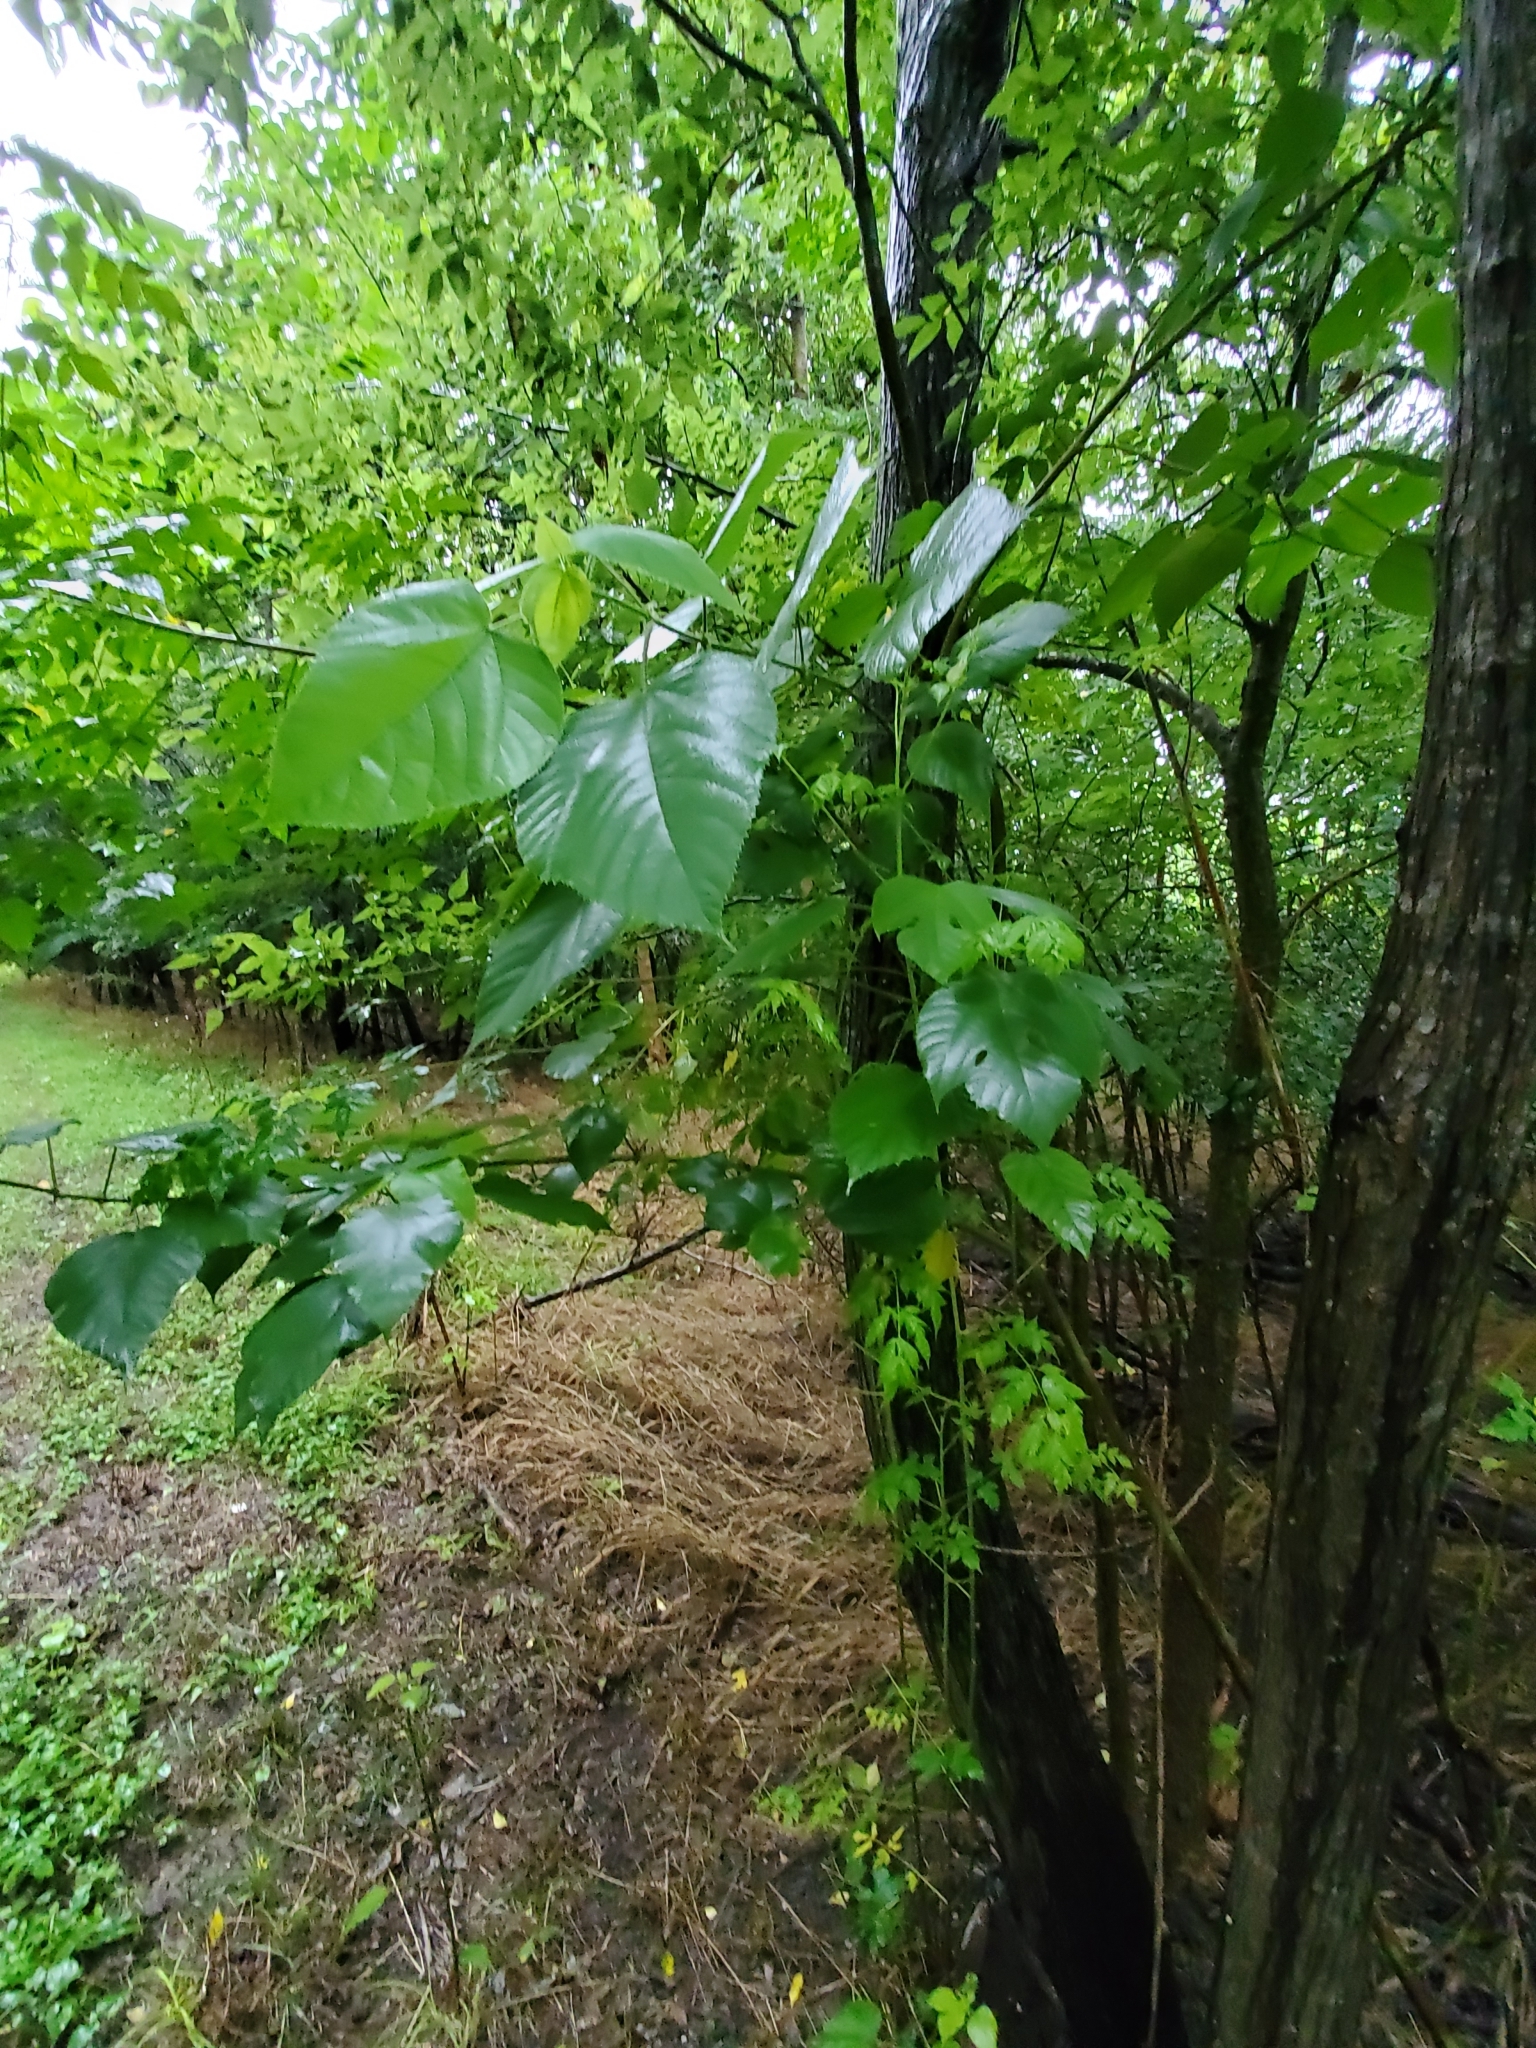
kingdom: Plantae
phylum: Tracheophyta
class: Magnoliopsida
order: Rosales
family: Moraceae
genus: Broussonetia
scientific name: Broussonetia papyrifera
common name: Paper mulberry
